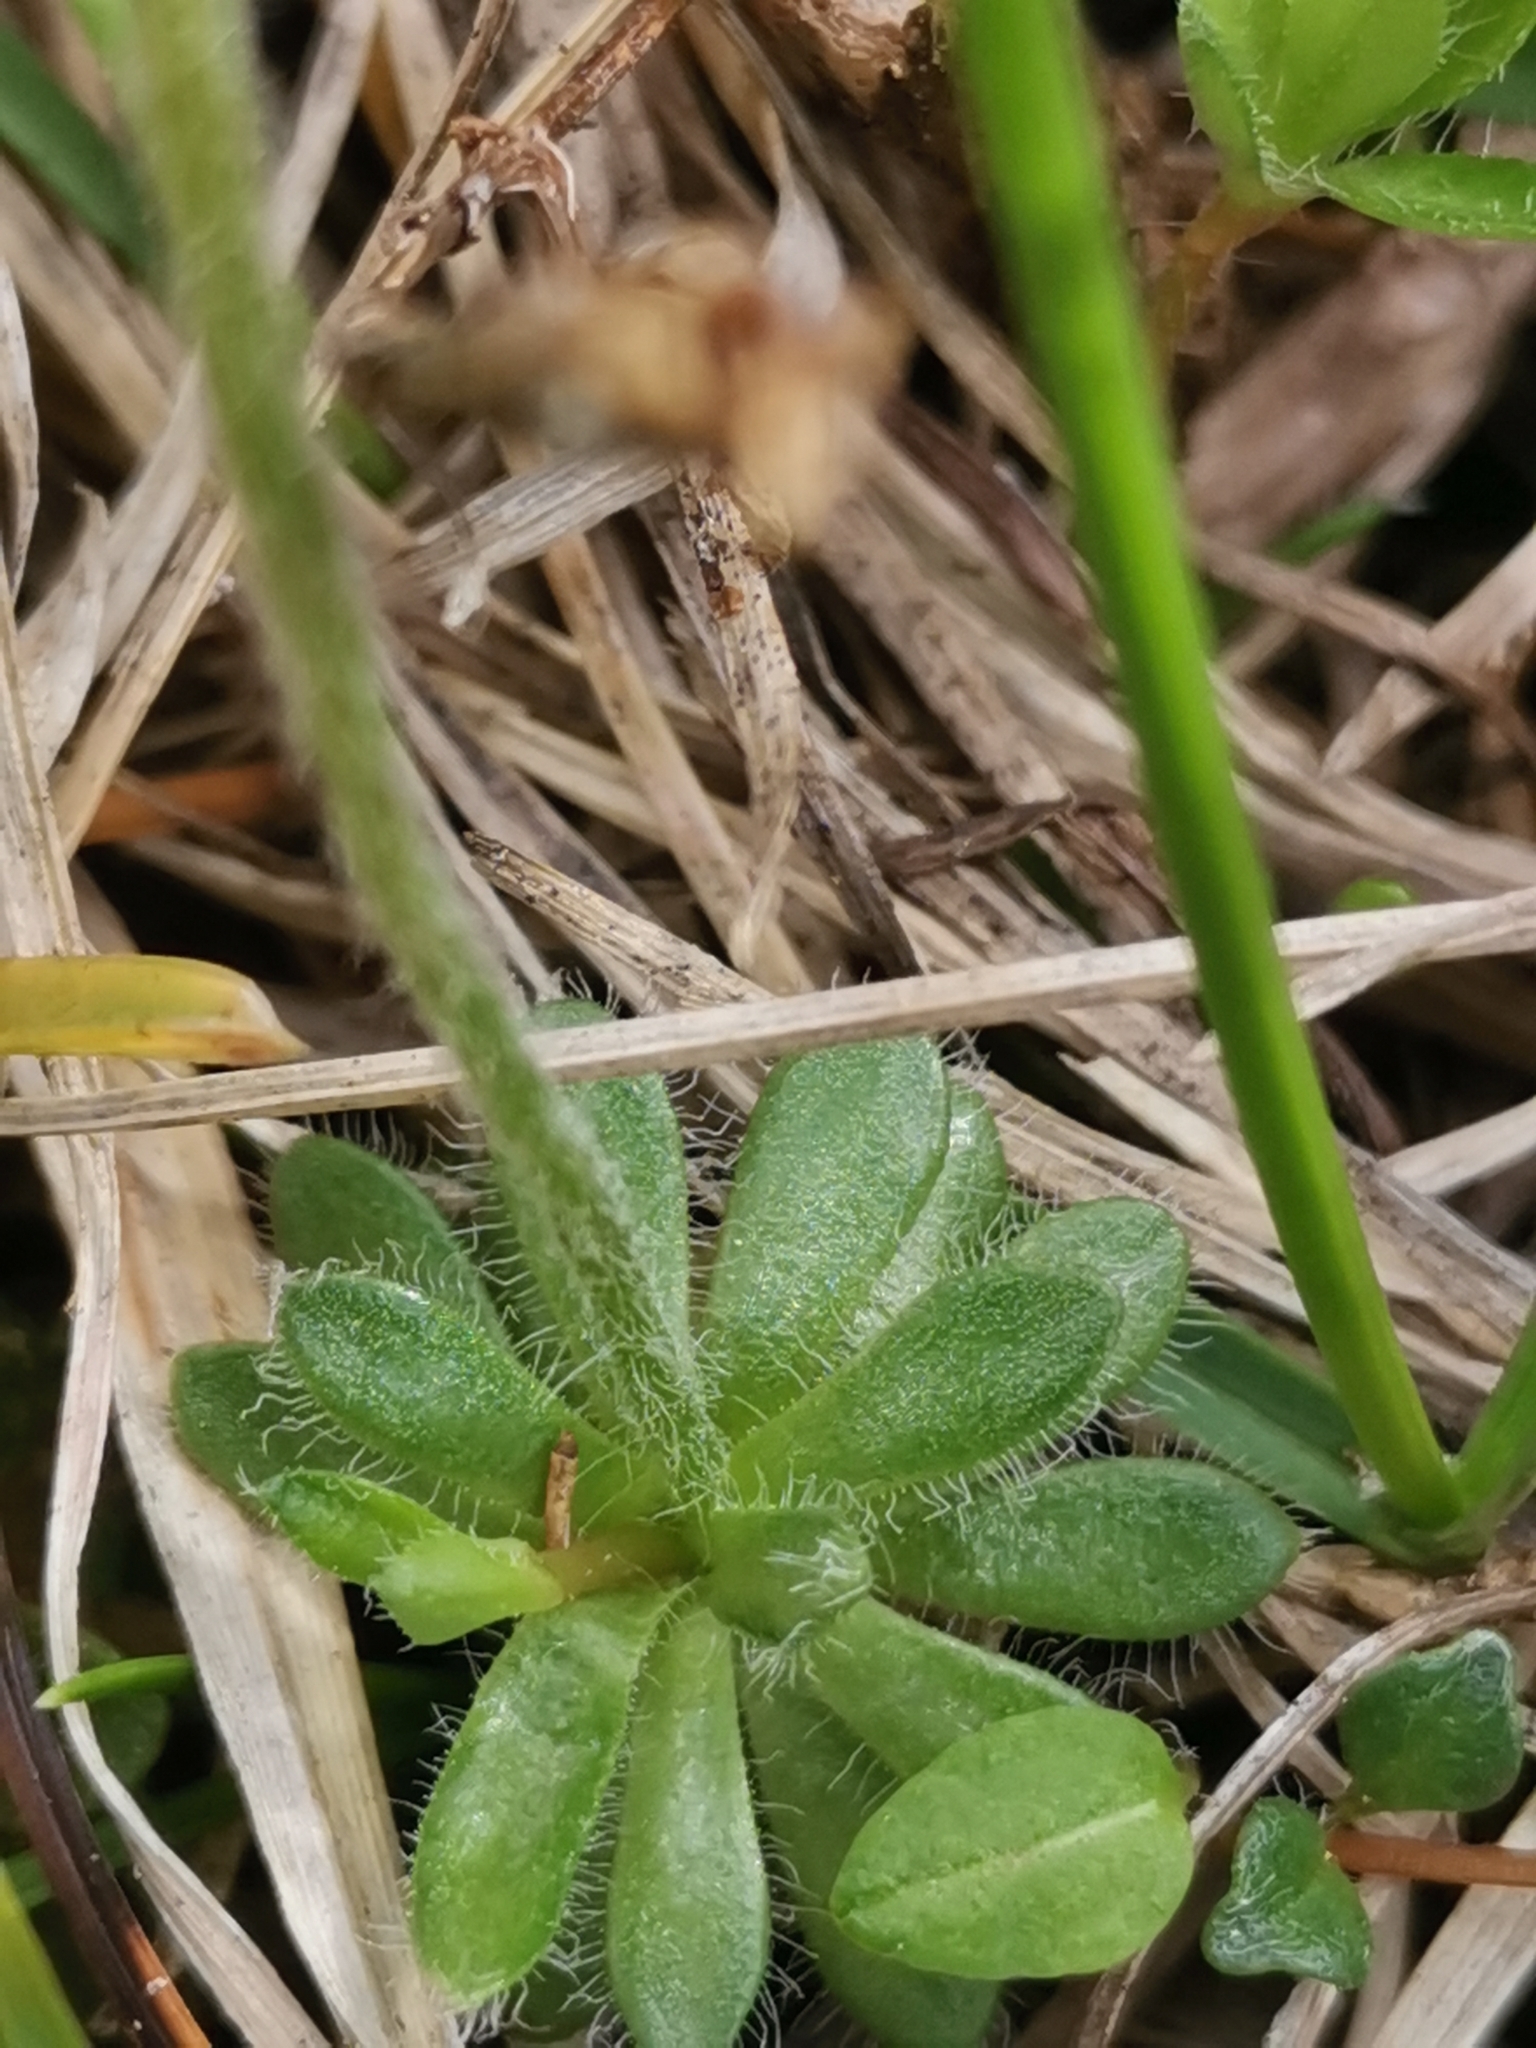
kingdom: Plantae
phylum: Tracheophyta
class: Magnoliopsida
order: Ericales
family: Primulaceae
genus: Androsace
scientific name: Androsace chamaejasme
